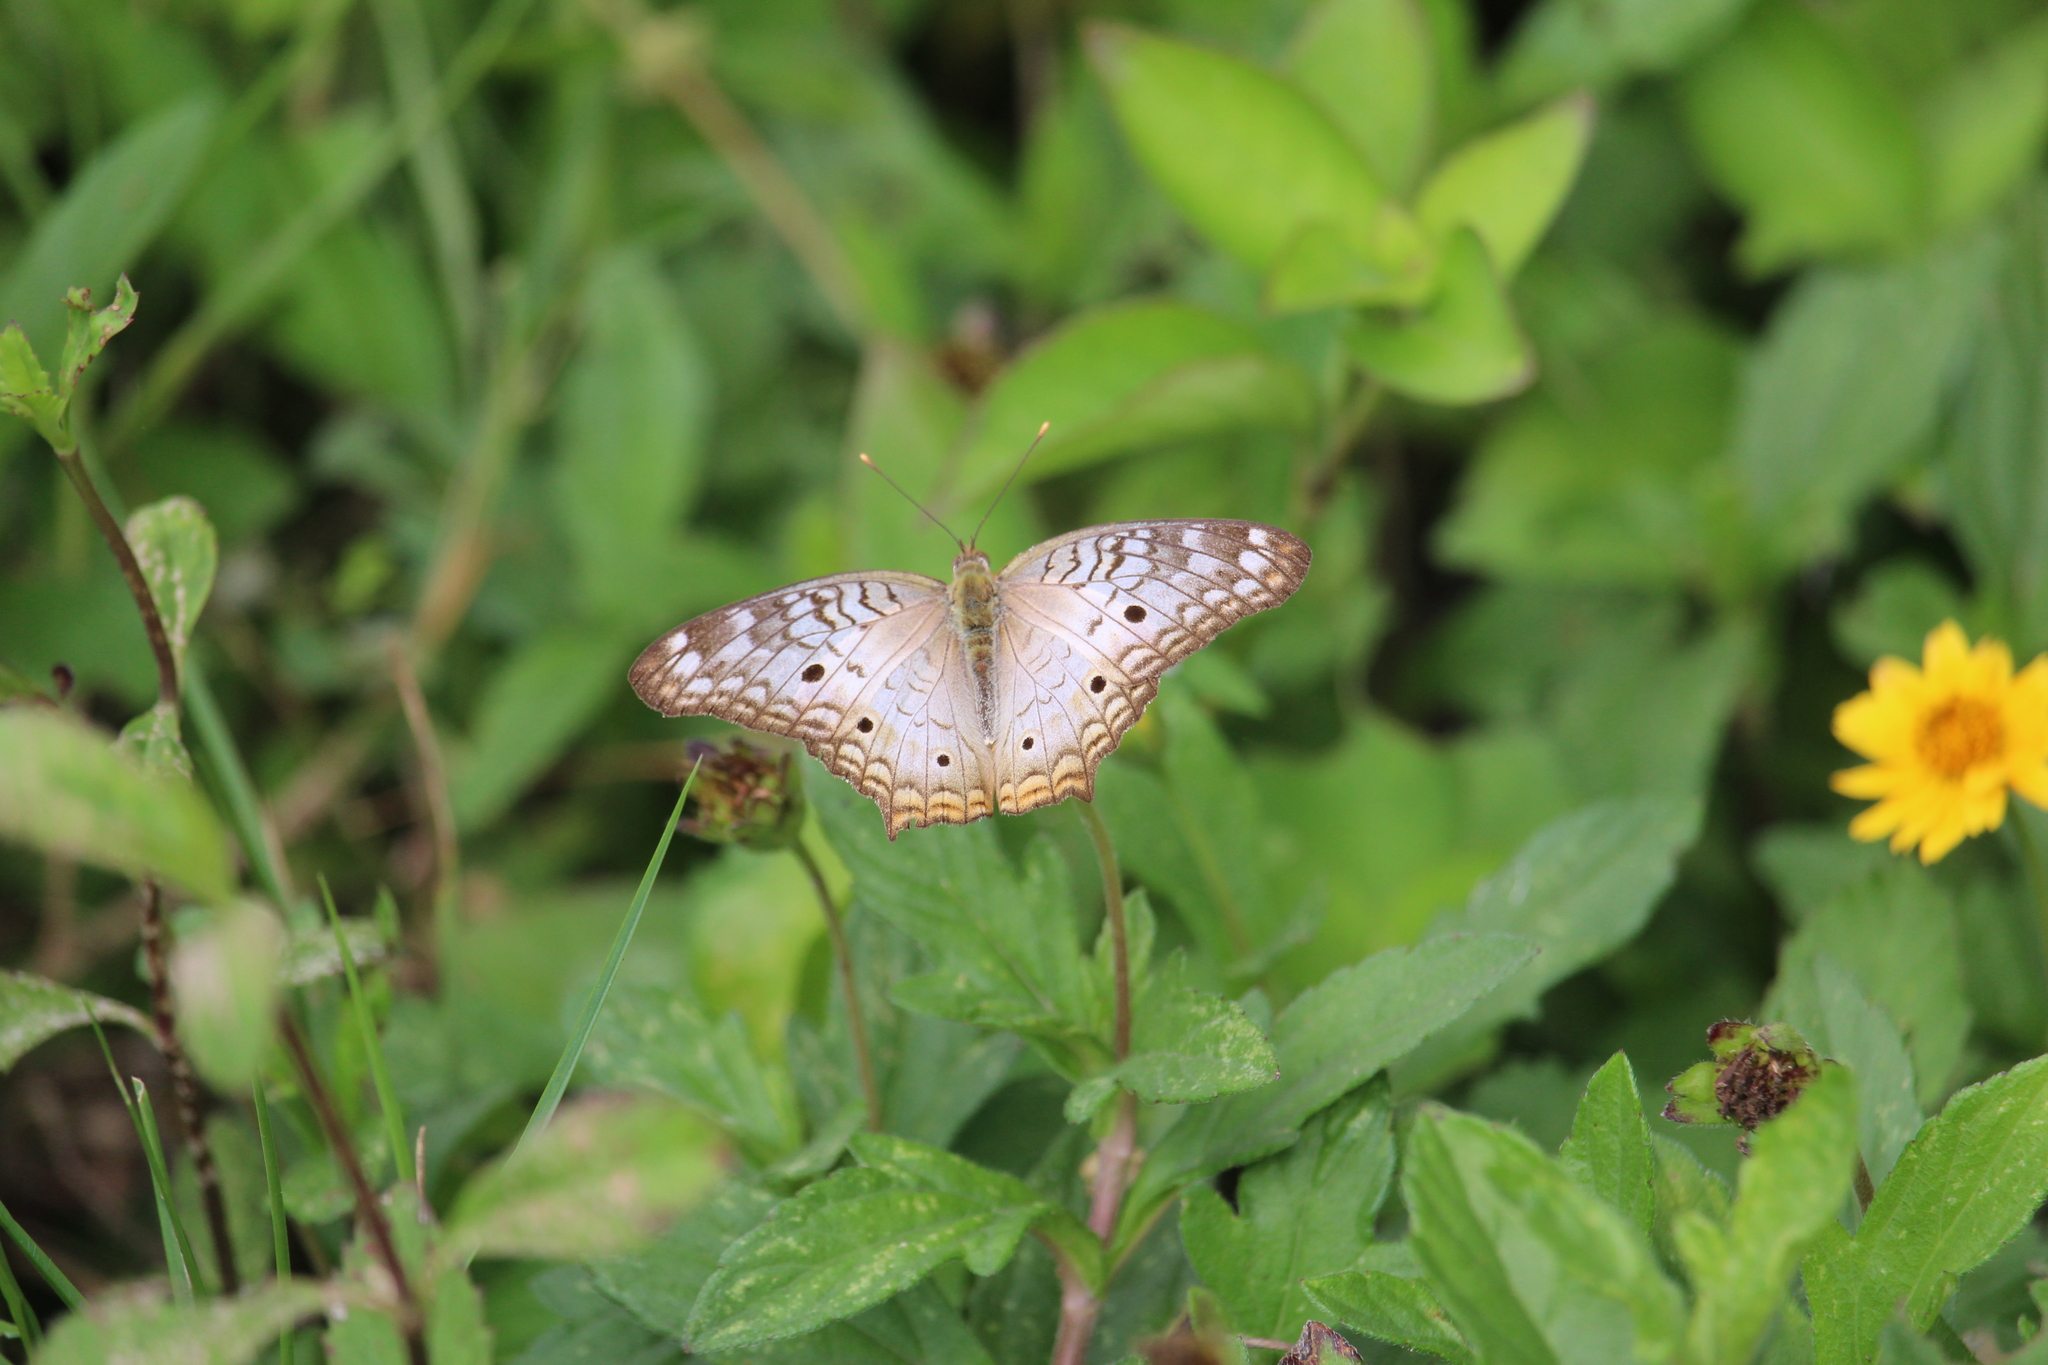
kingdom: Animalia
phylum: Arthropoda
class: Insecta
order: Lepidoptera
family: Nymphalidae
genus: Anartia
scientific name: Anartia jatrophae
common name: White peacock
